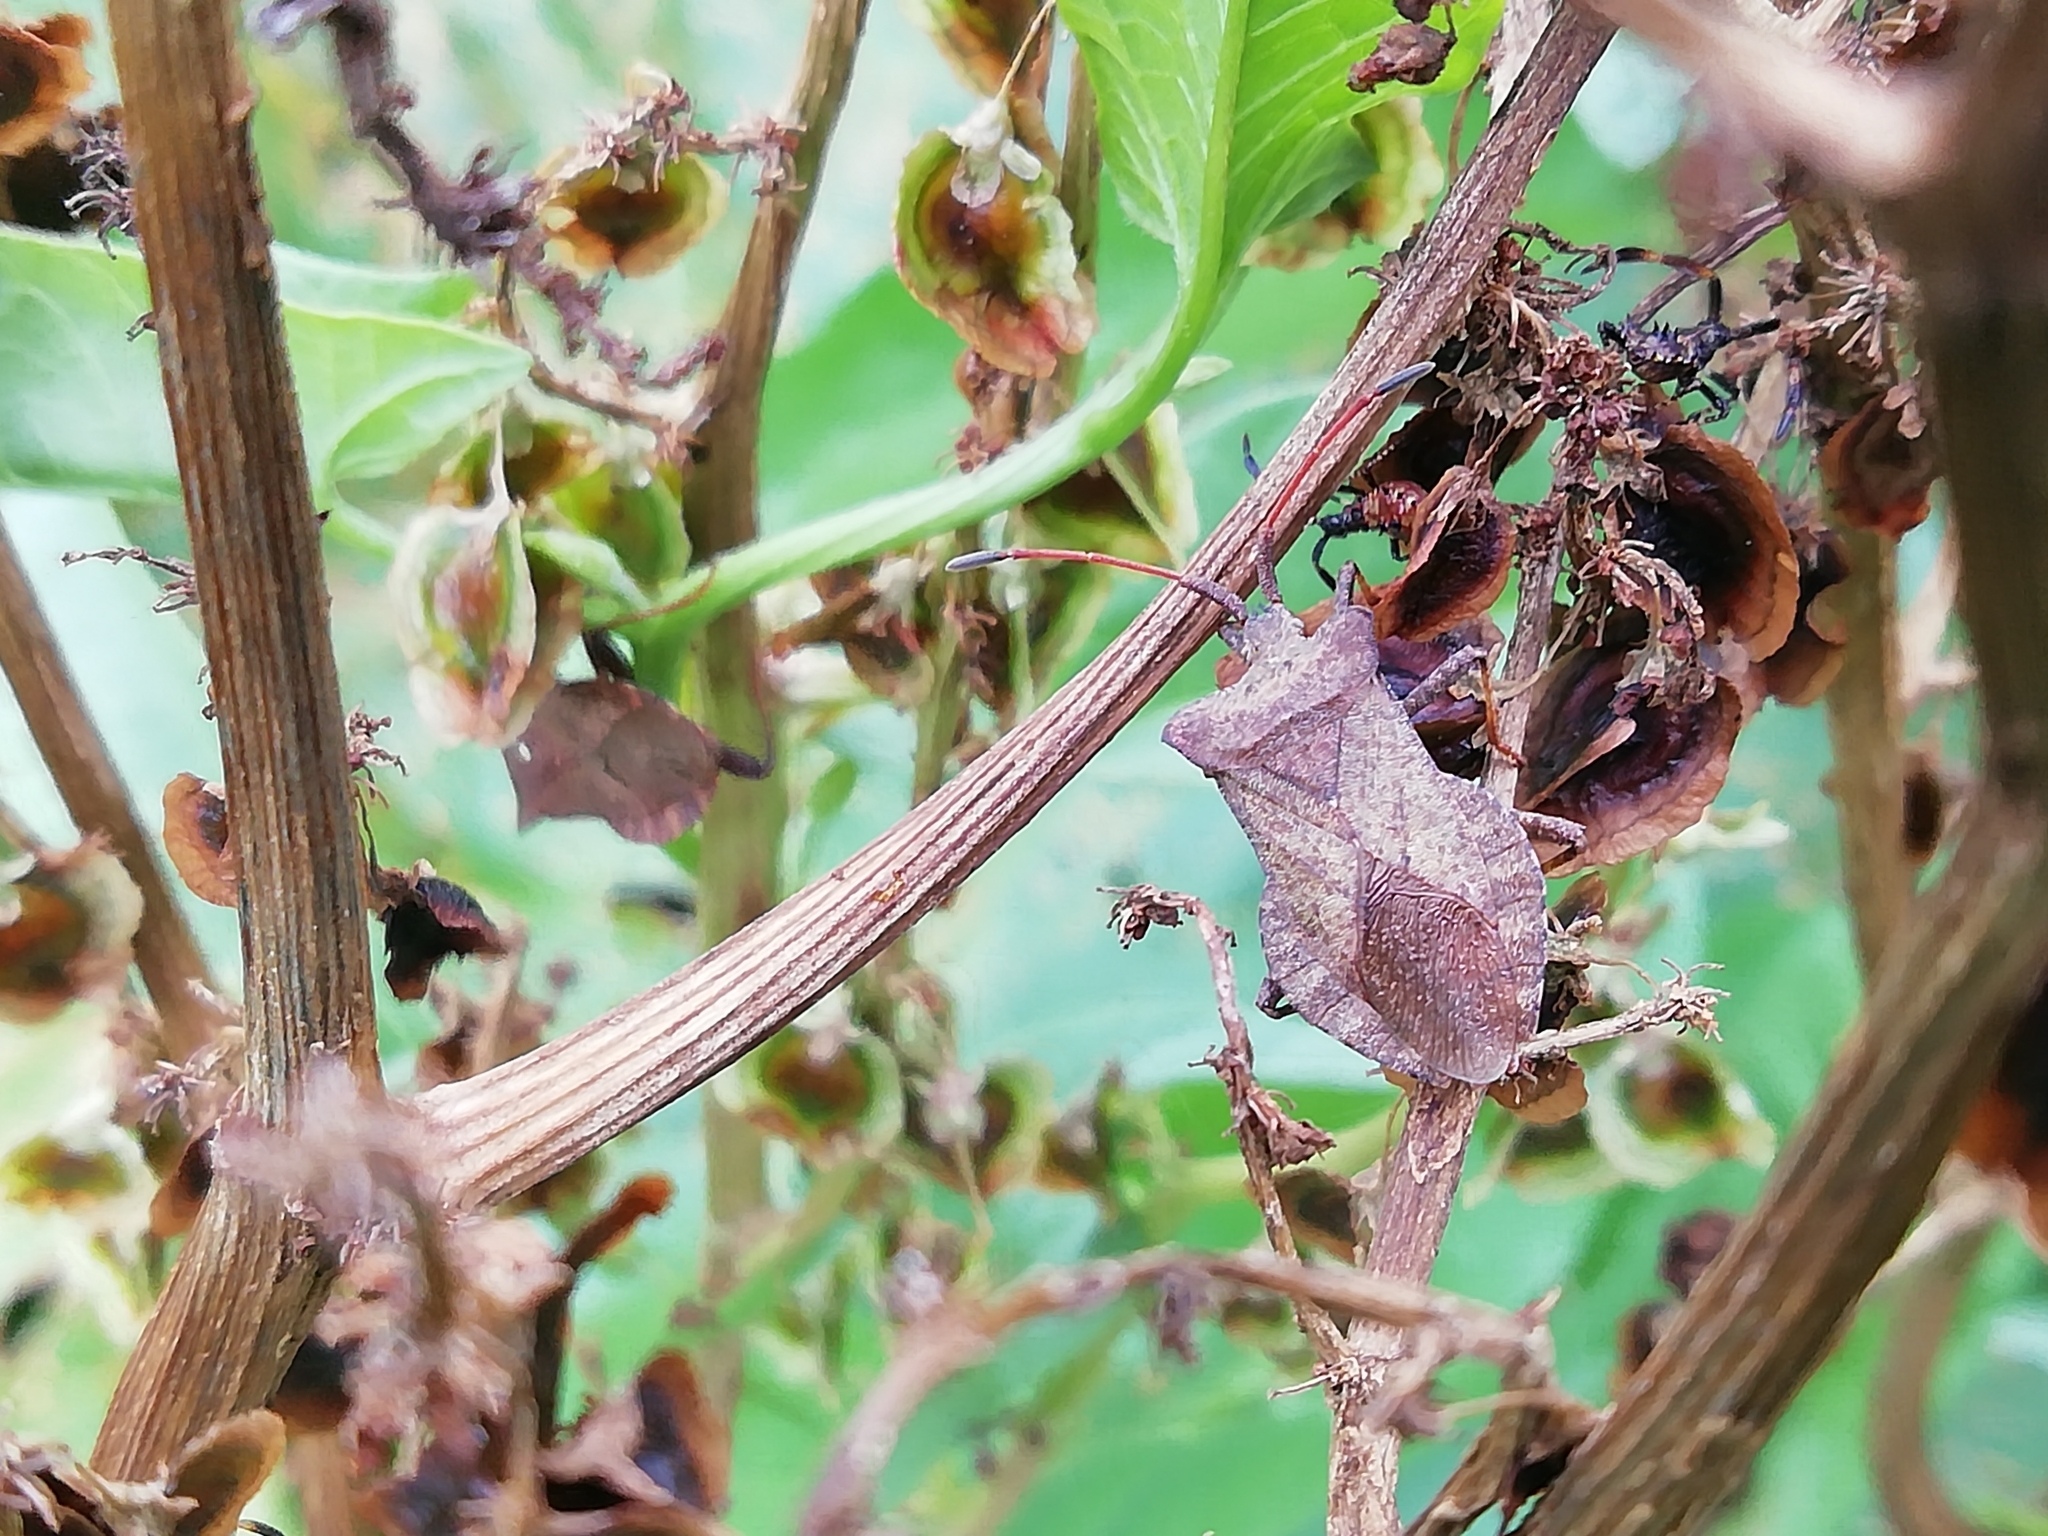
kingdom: Animalia
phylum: Arthropoda
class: Insecta
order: Hemiptera
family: Coreidae
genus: Coreus
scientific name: Coreus marginatus
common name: Dock bug
